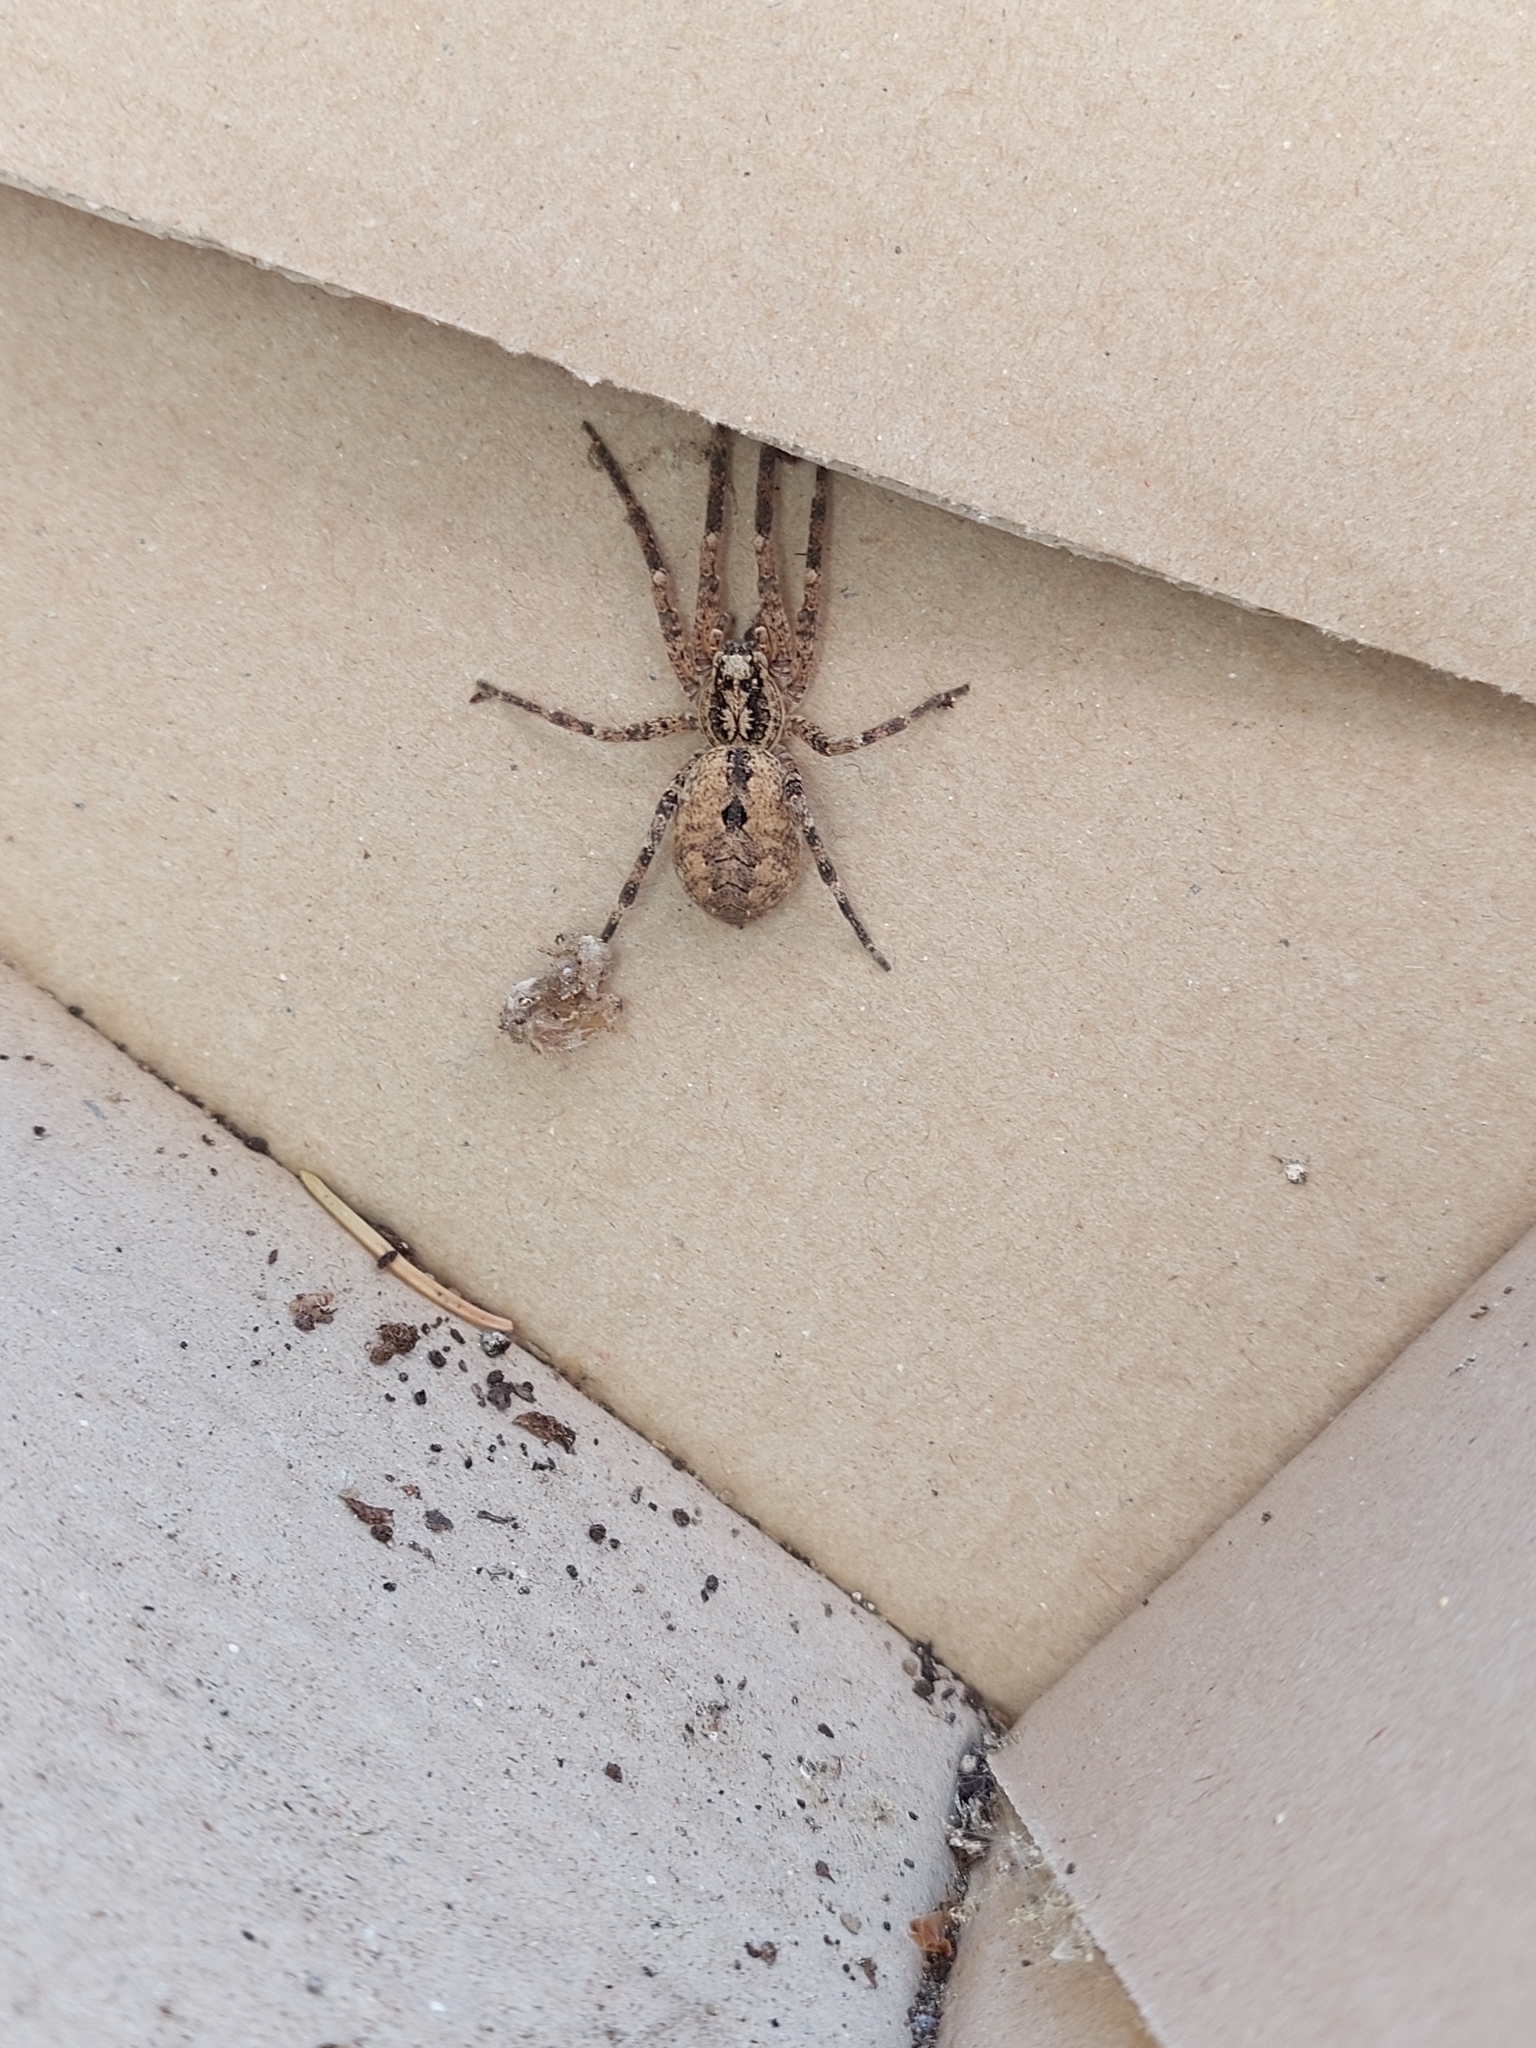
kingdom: Animalia
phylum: Arthropoda
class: Arachnida
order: Araneae
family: Zoropsidae
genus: Zoropsis
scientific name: Zoropsis spinimana
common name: Zoropsid spider
